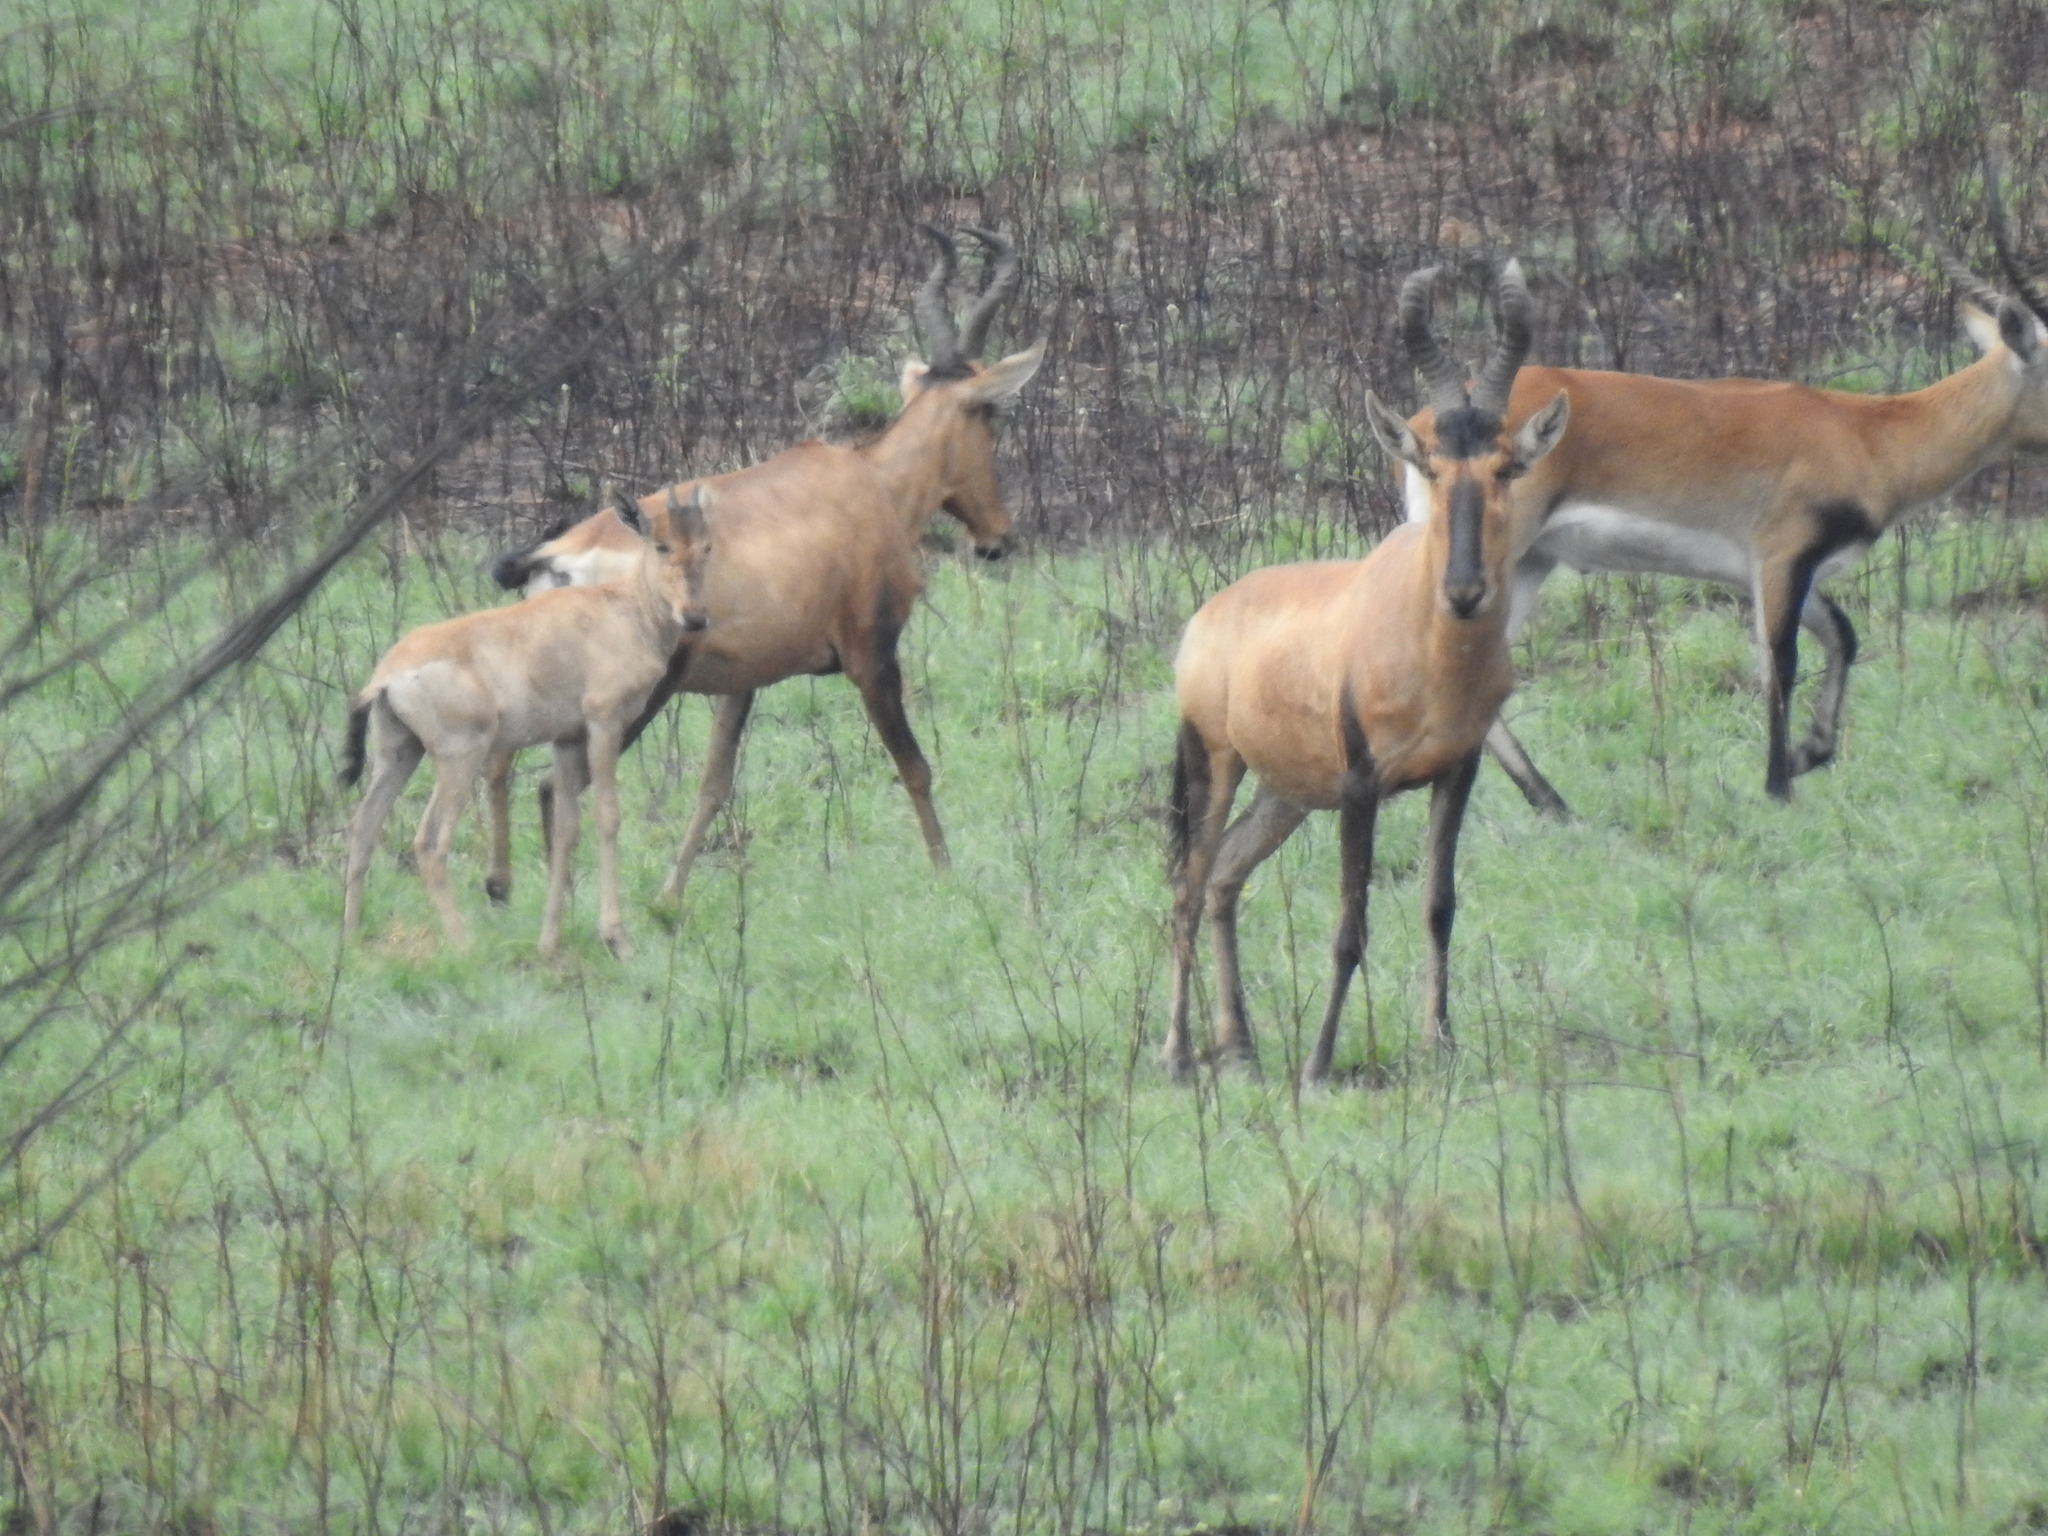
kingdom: Animalia
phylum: Chordata
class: Mammalia
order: Artiodactyla
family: Bovidae
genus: Alcelaphus
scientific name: Alcelaphus caama
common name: Red hartebeest
